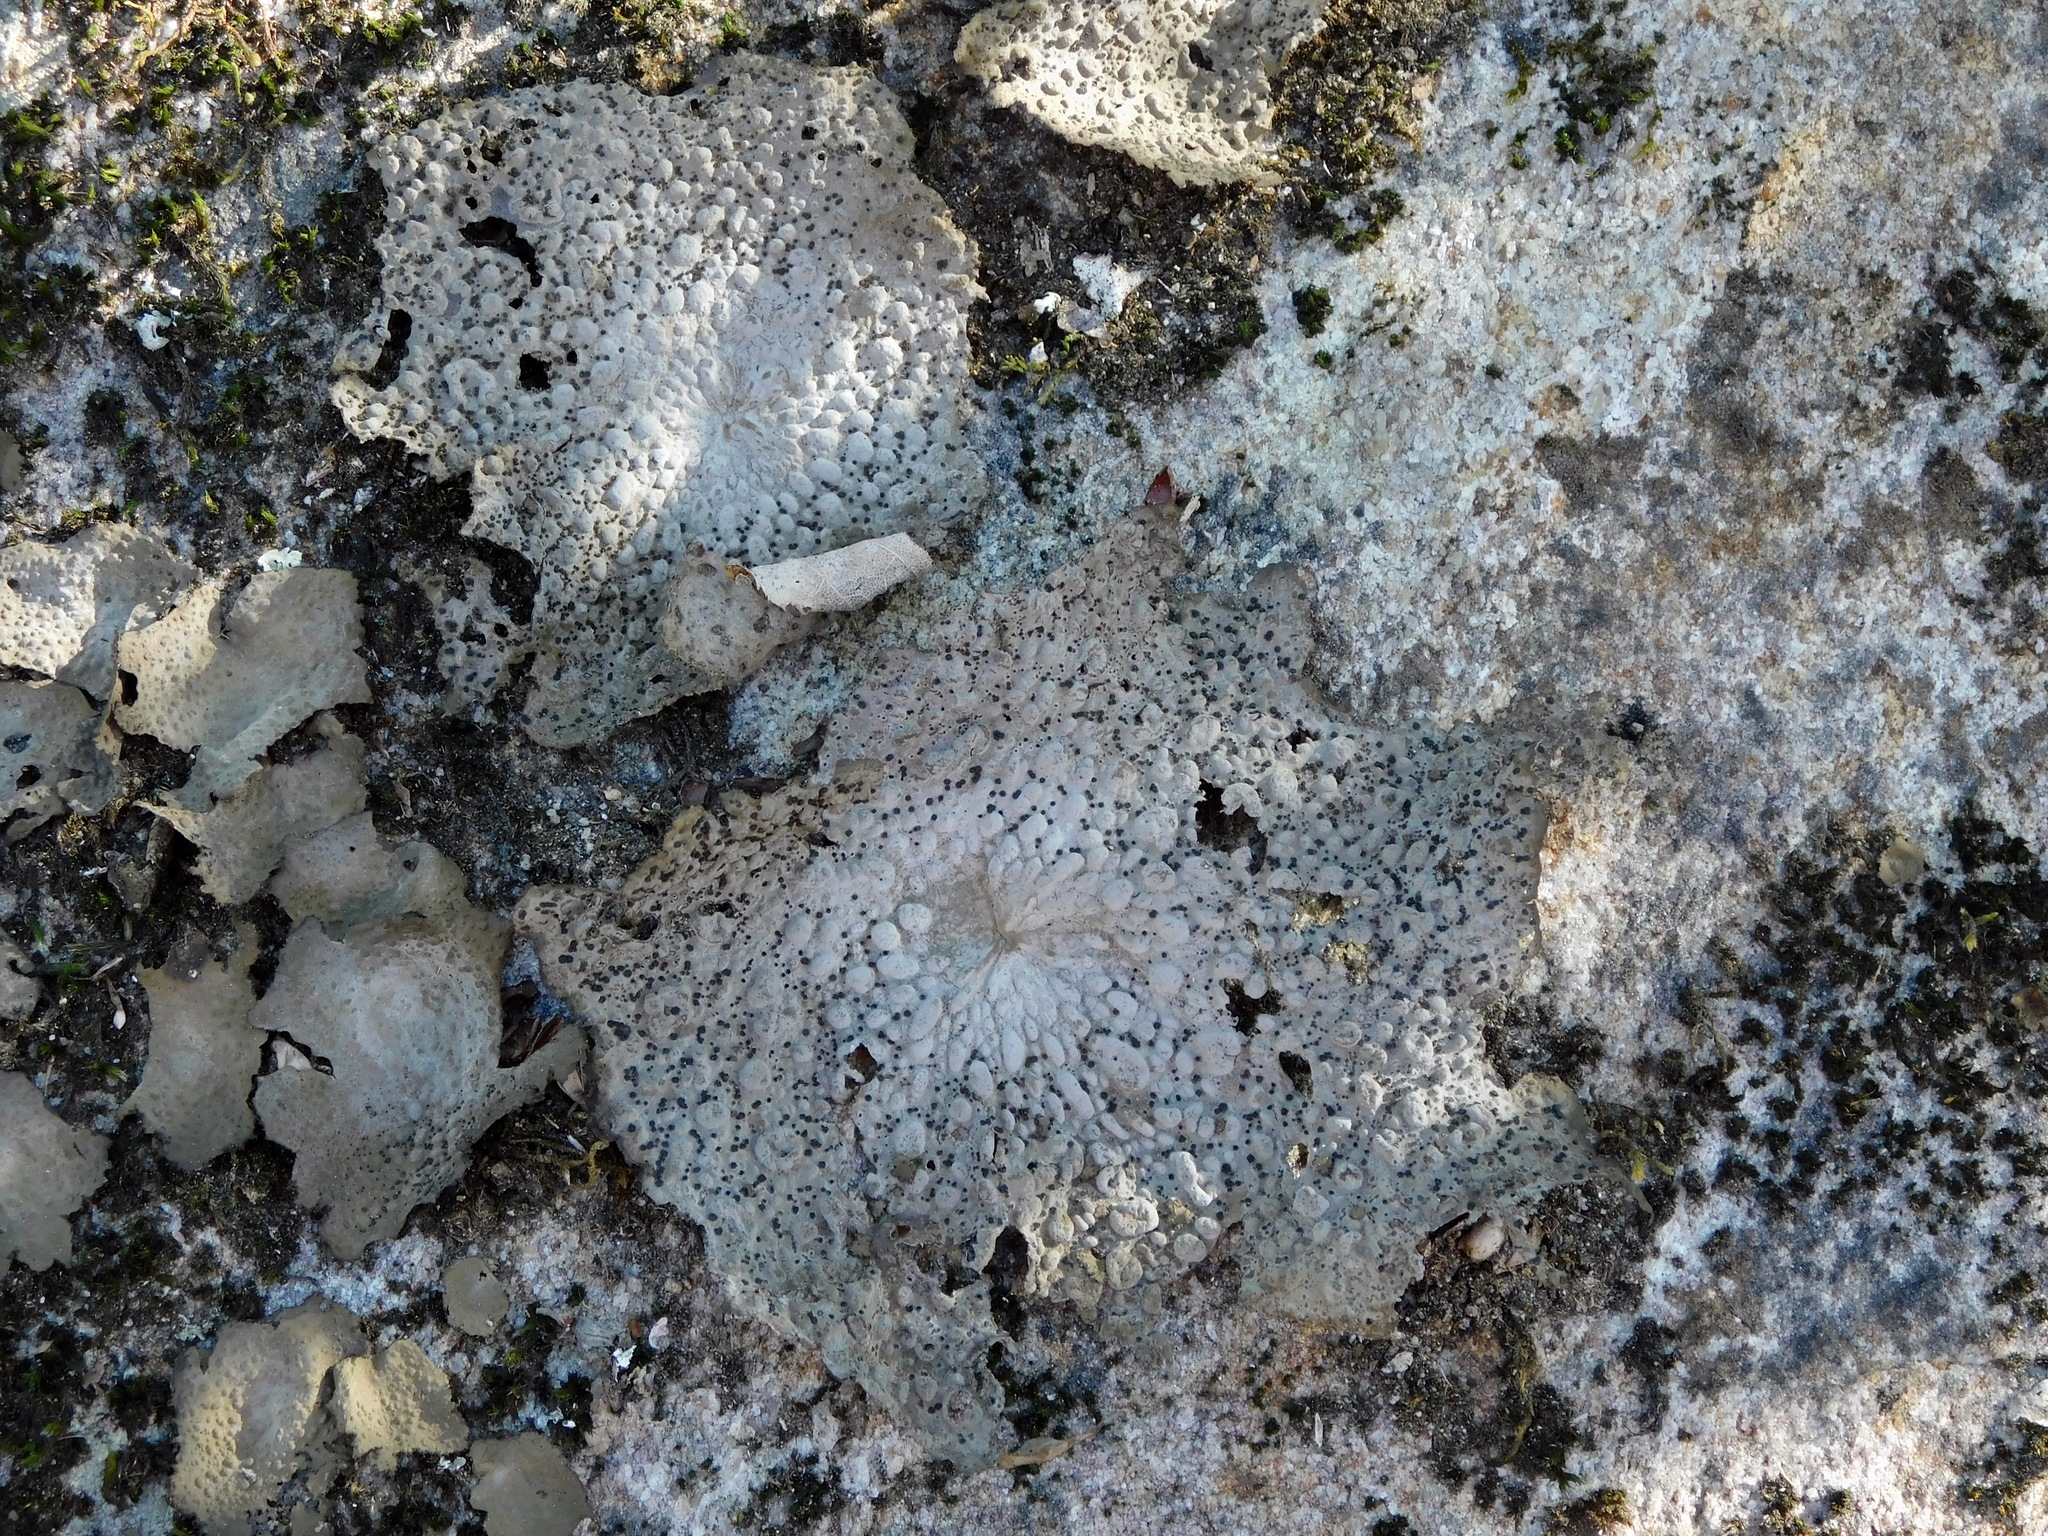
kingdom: Fungi
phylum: Ascomycota
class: Lecanoromycetes
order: Umbilicariales
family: Umbilicariaceae
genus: Lasallia
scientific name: Lasallia papulosa
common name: Common toadskin lichen
